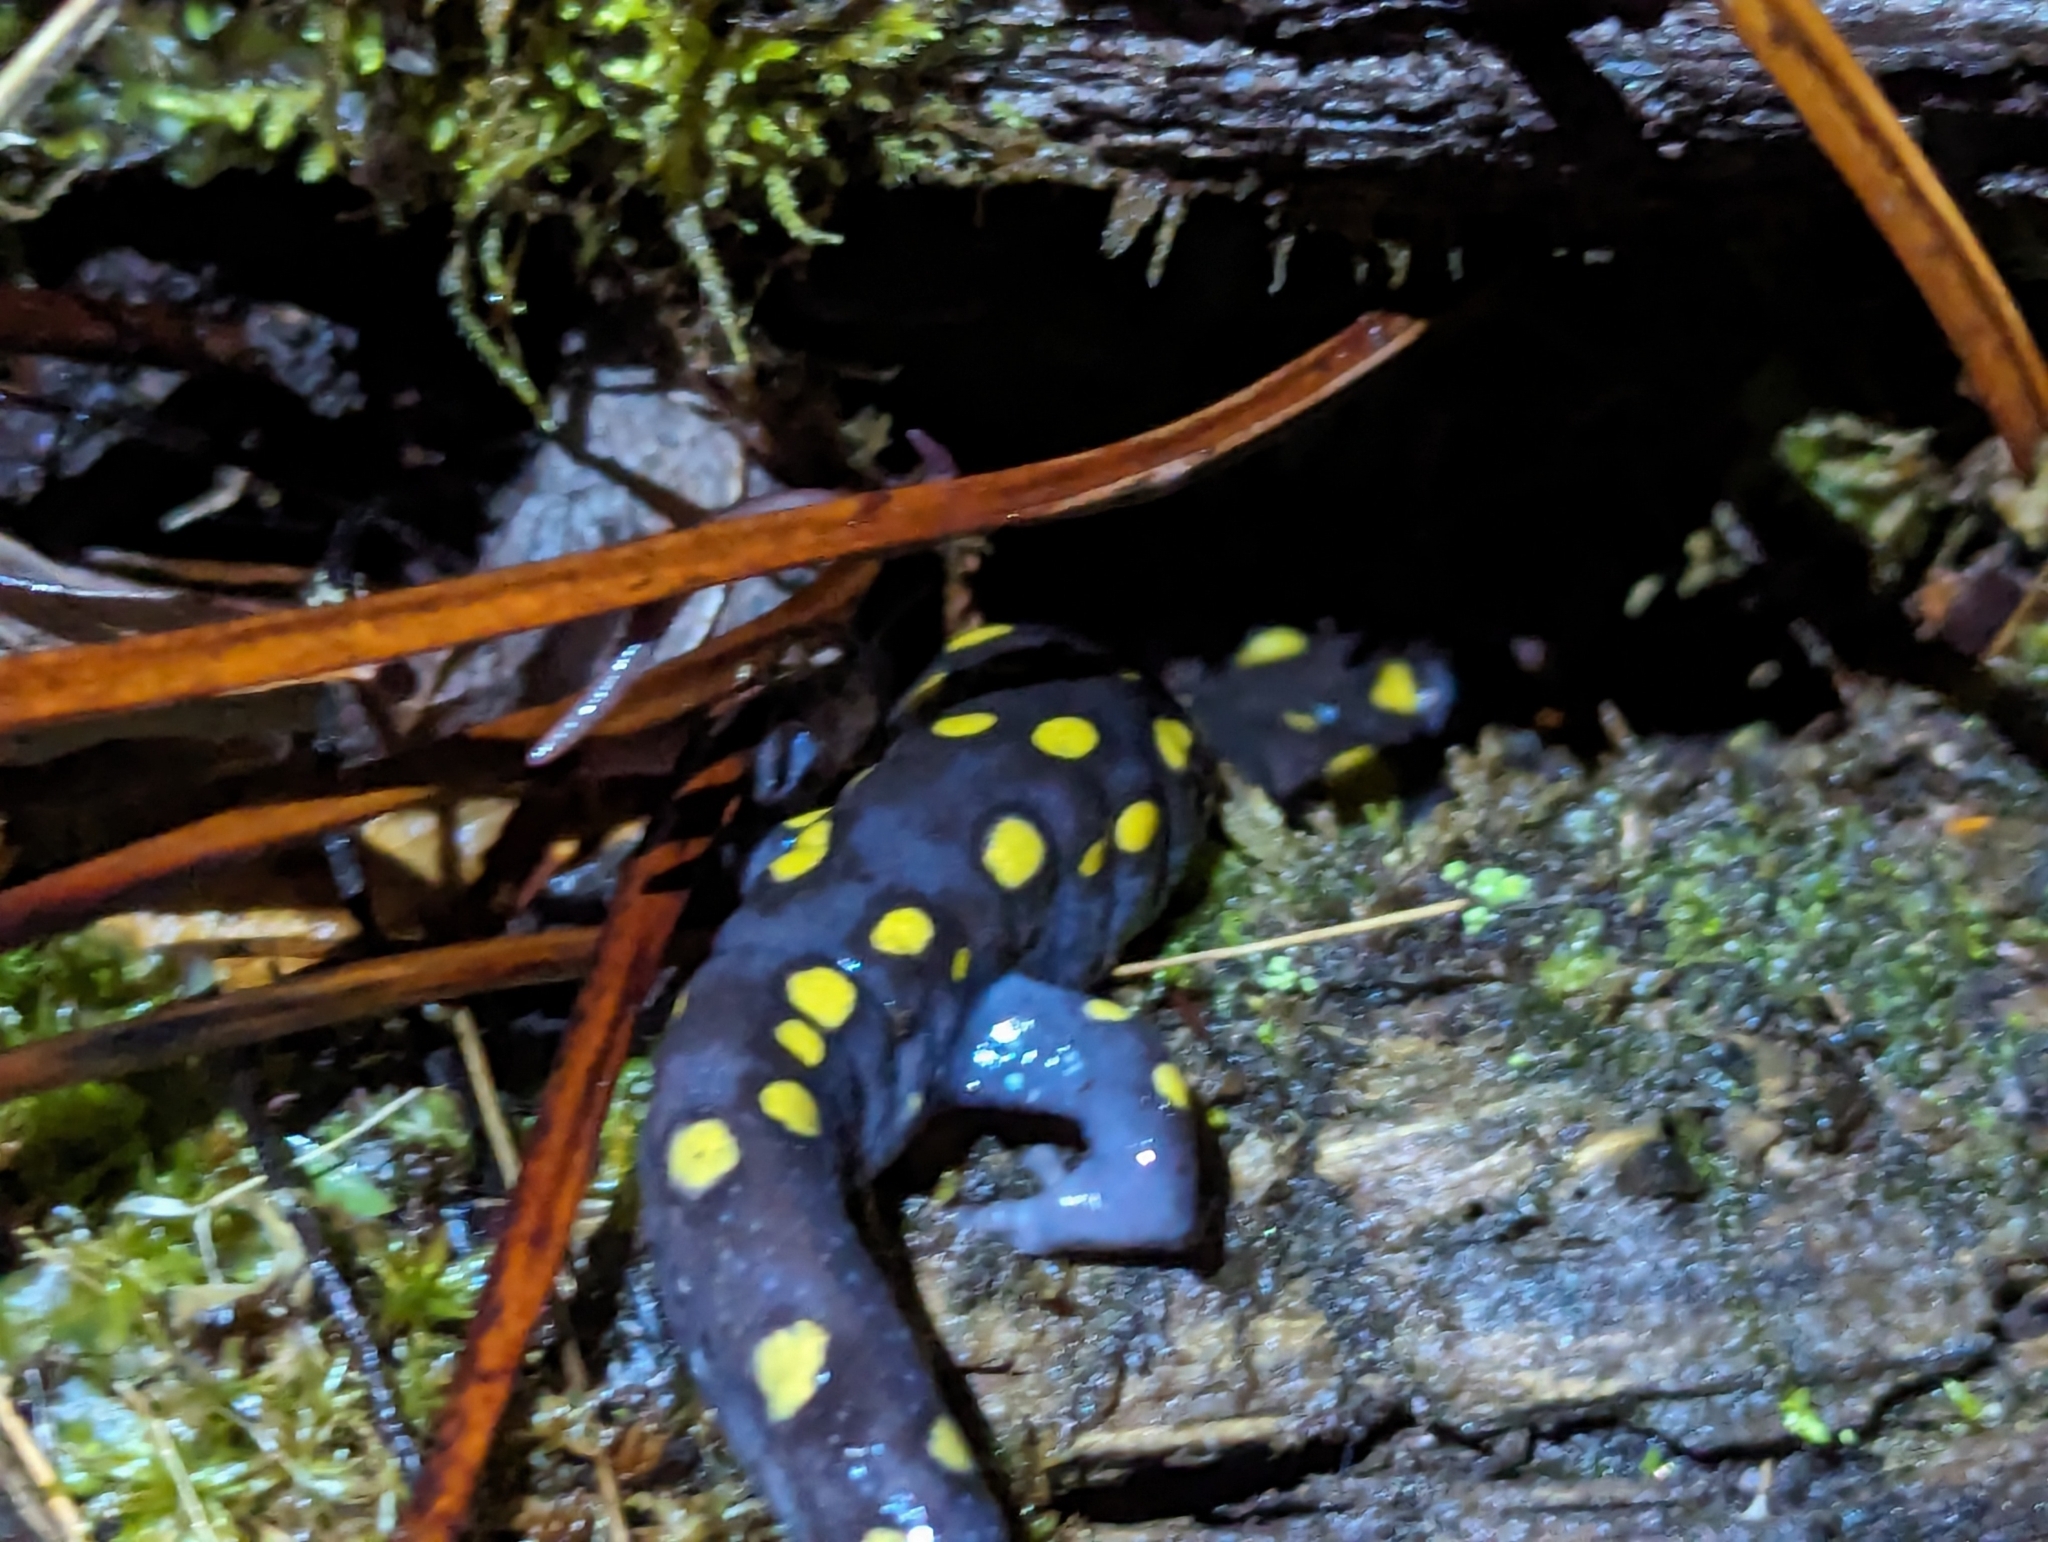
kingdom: Animalia
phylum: Chordata
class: Amphibia
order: Caudata
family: Ambystomatidae
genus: Ambystoma
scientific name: Ambystoma maculatum
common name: Spotted salamander
